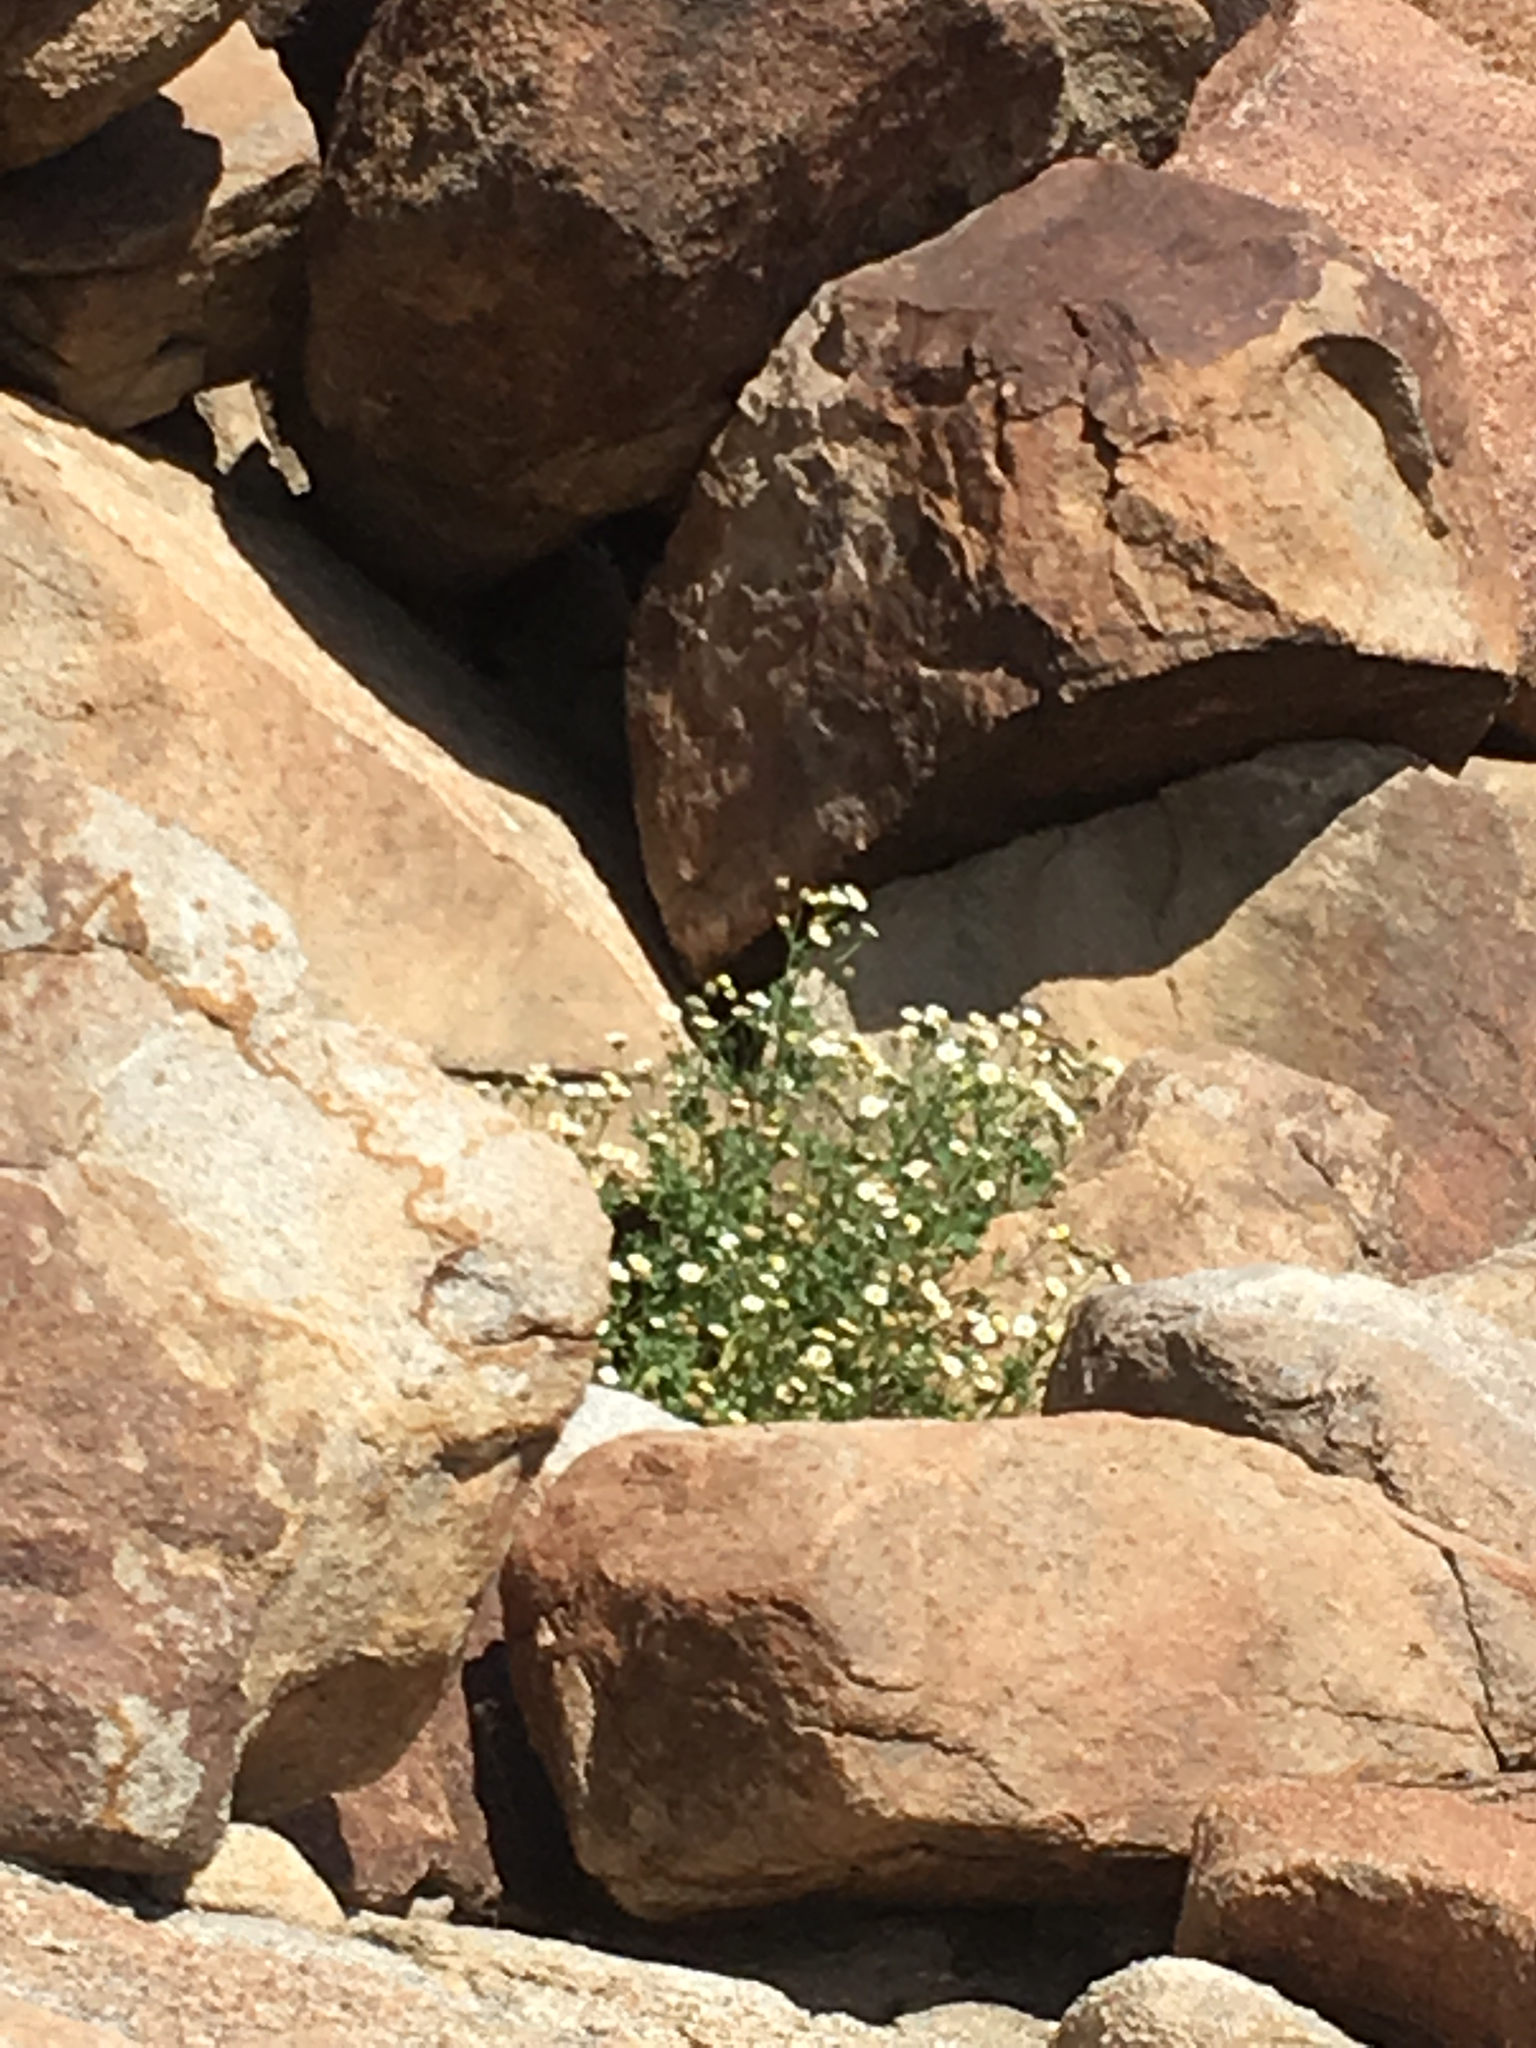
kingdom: Plantae
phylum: Tracheophyta
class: Magnoliopsida
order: Asterales
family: Asteraceae
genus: Laphamia
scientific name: Laphamia emoryi
